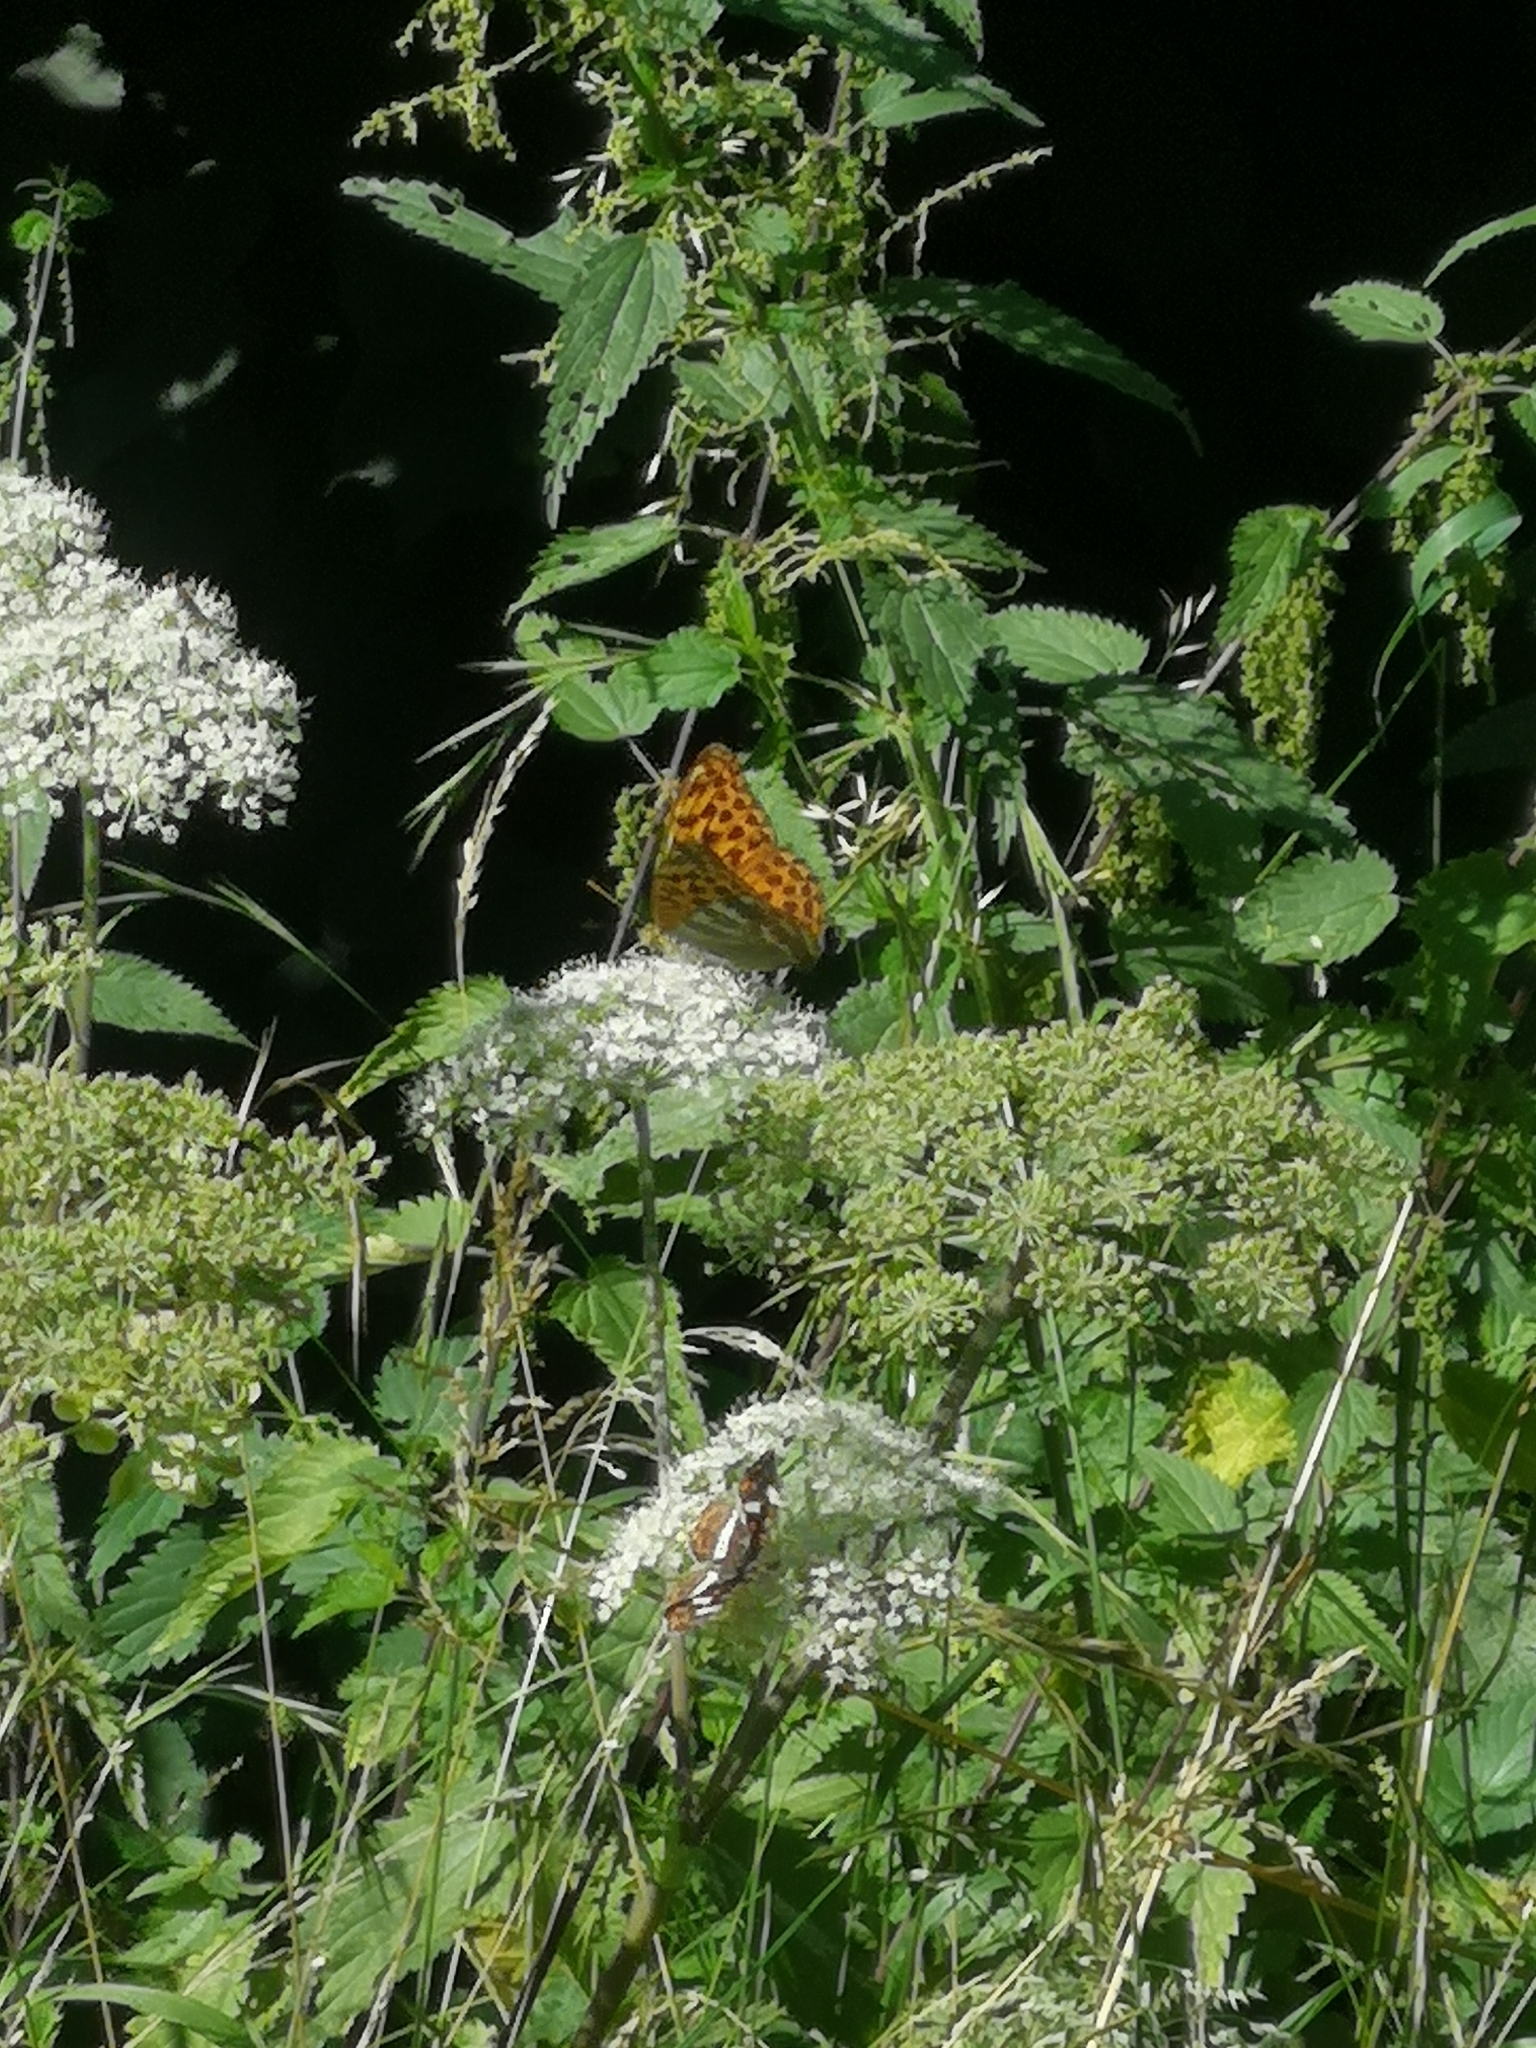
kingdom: Animalia
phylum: Arthropoda
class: Insecta
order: Lepidoptera
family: Nymphalidae
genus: Argynnis
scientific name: Argynnis paphia
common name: Silver-washed fritillary
